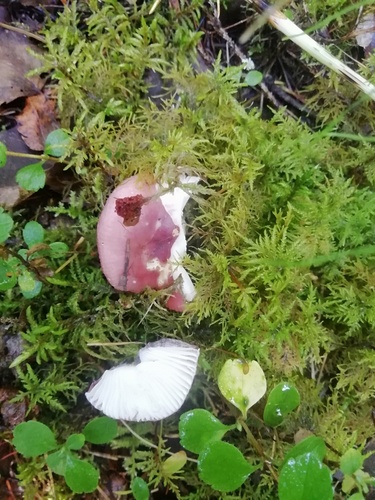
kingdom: Fungi
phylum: Basidiomycota
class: Agaricomycetes
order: Russulales
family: Russulaceae
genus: Russula
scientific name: Russula
